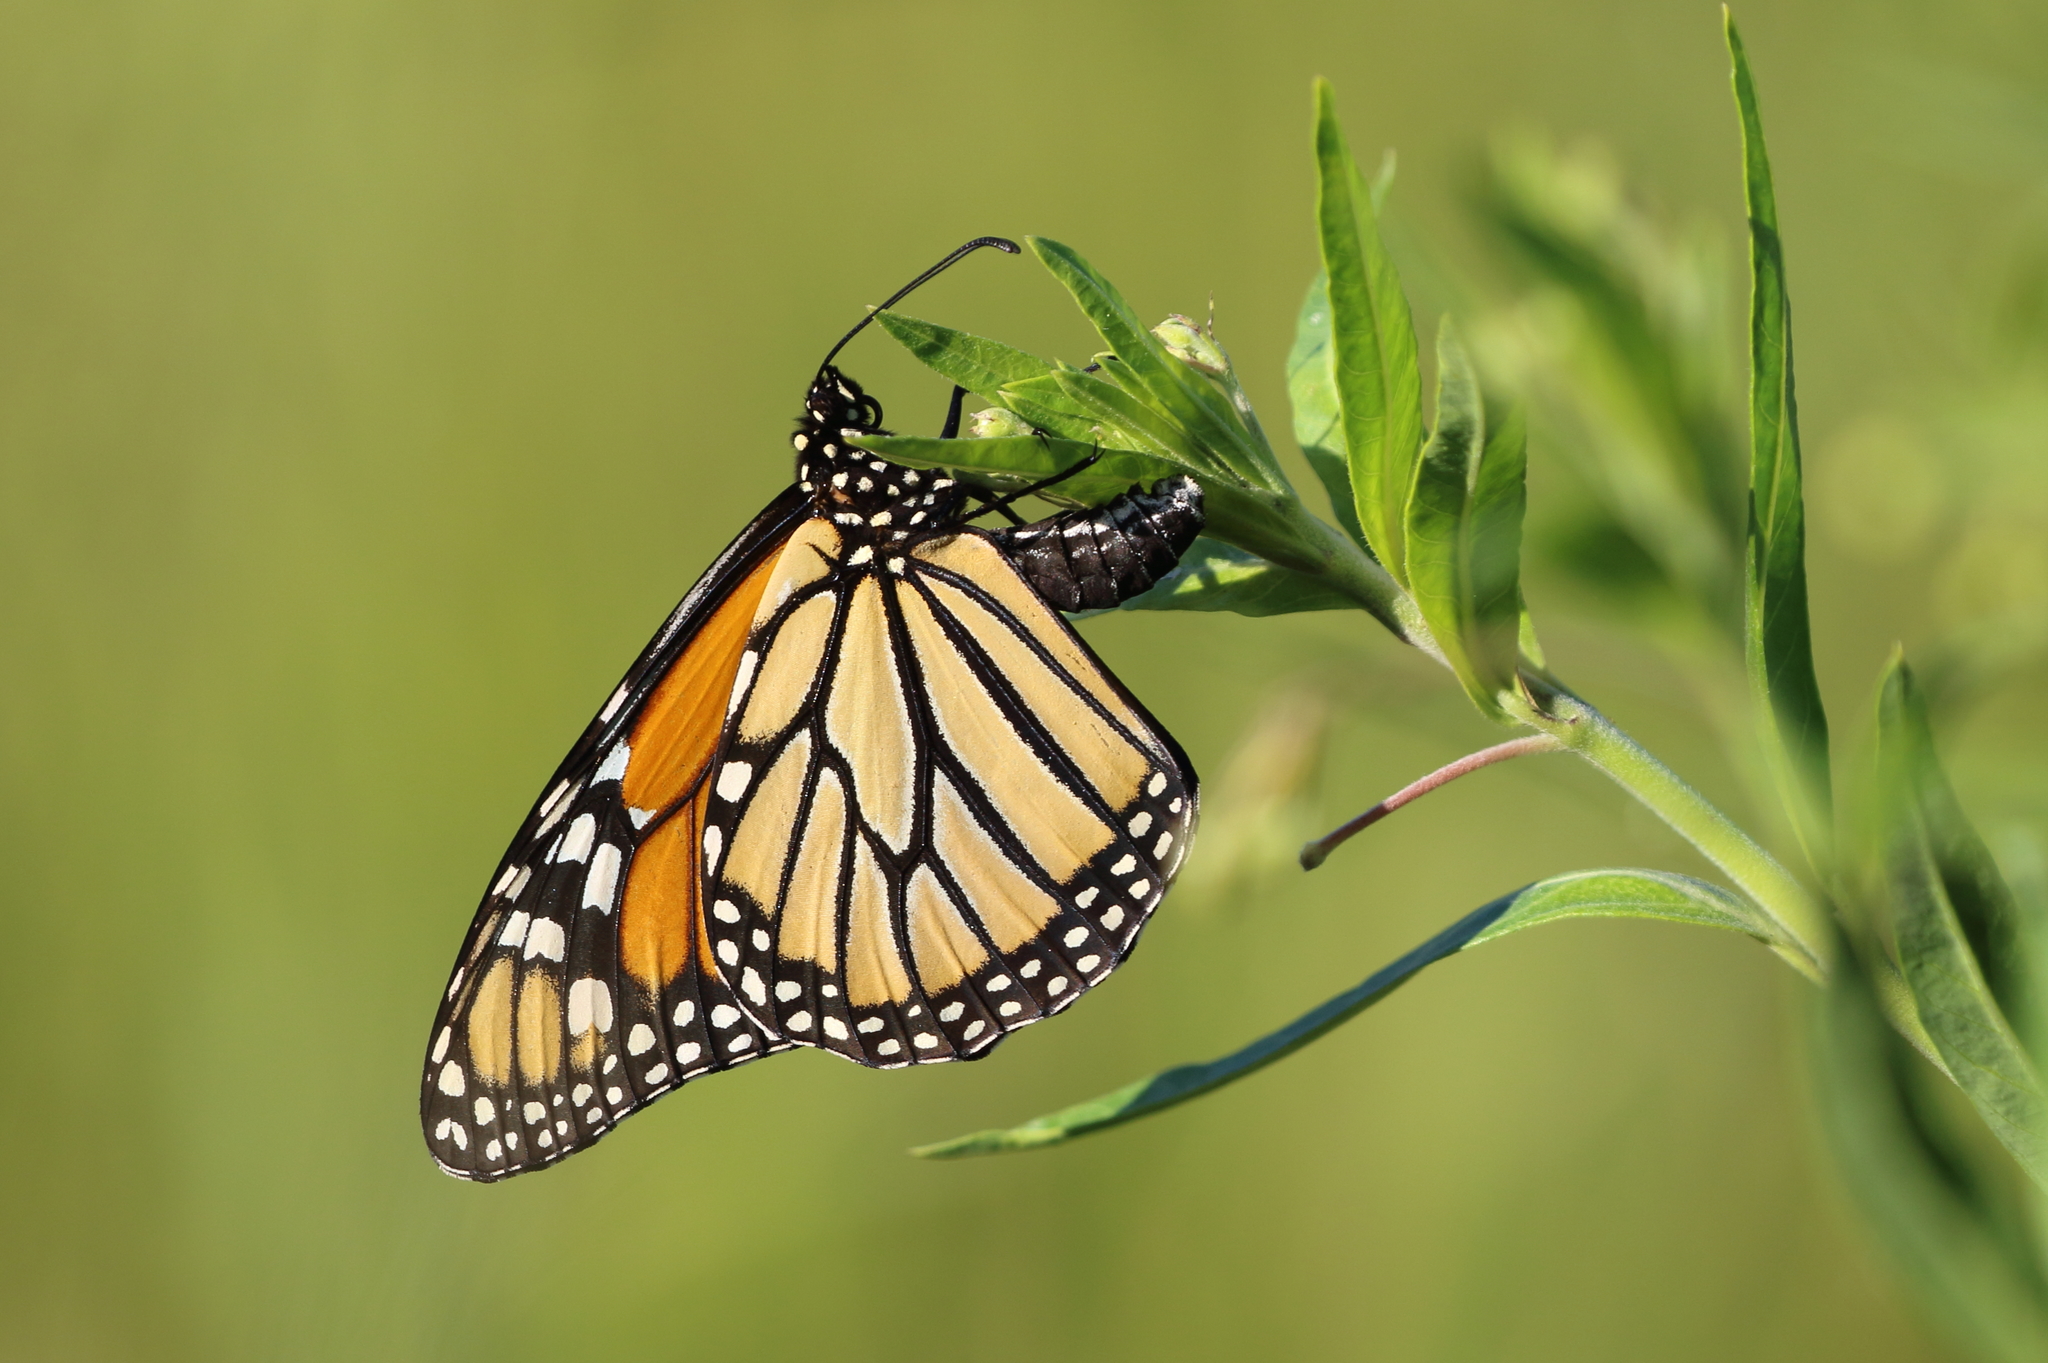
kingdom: Animalia
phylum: Arthropoda
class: Insecta
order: Lepidoptera
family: Nymphalidae
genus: Danaus
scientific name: Danaus plexippus
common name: Monarch
